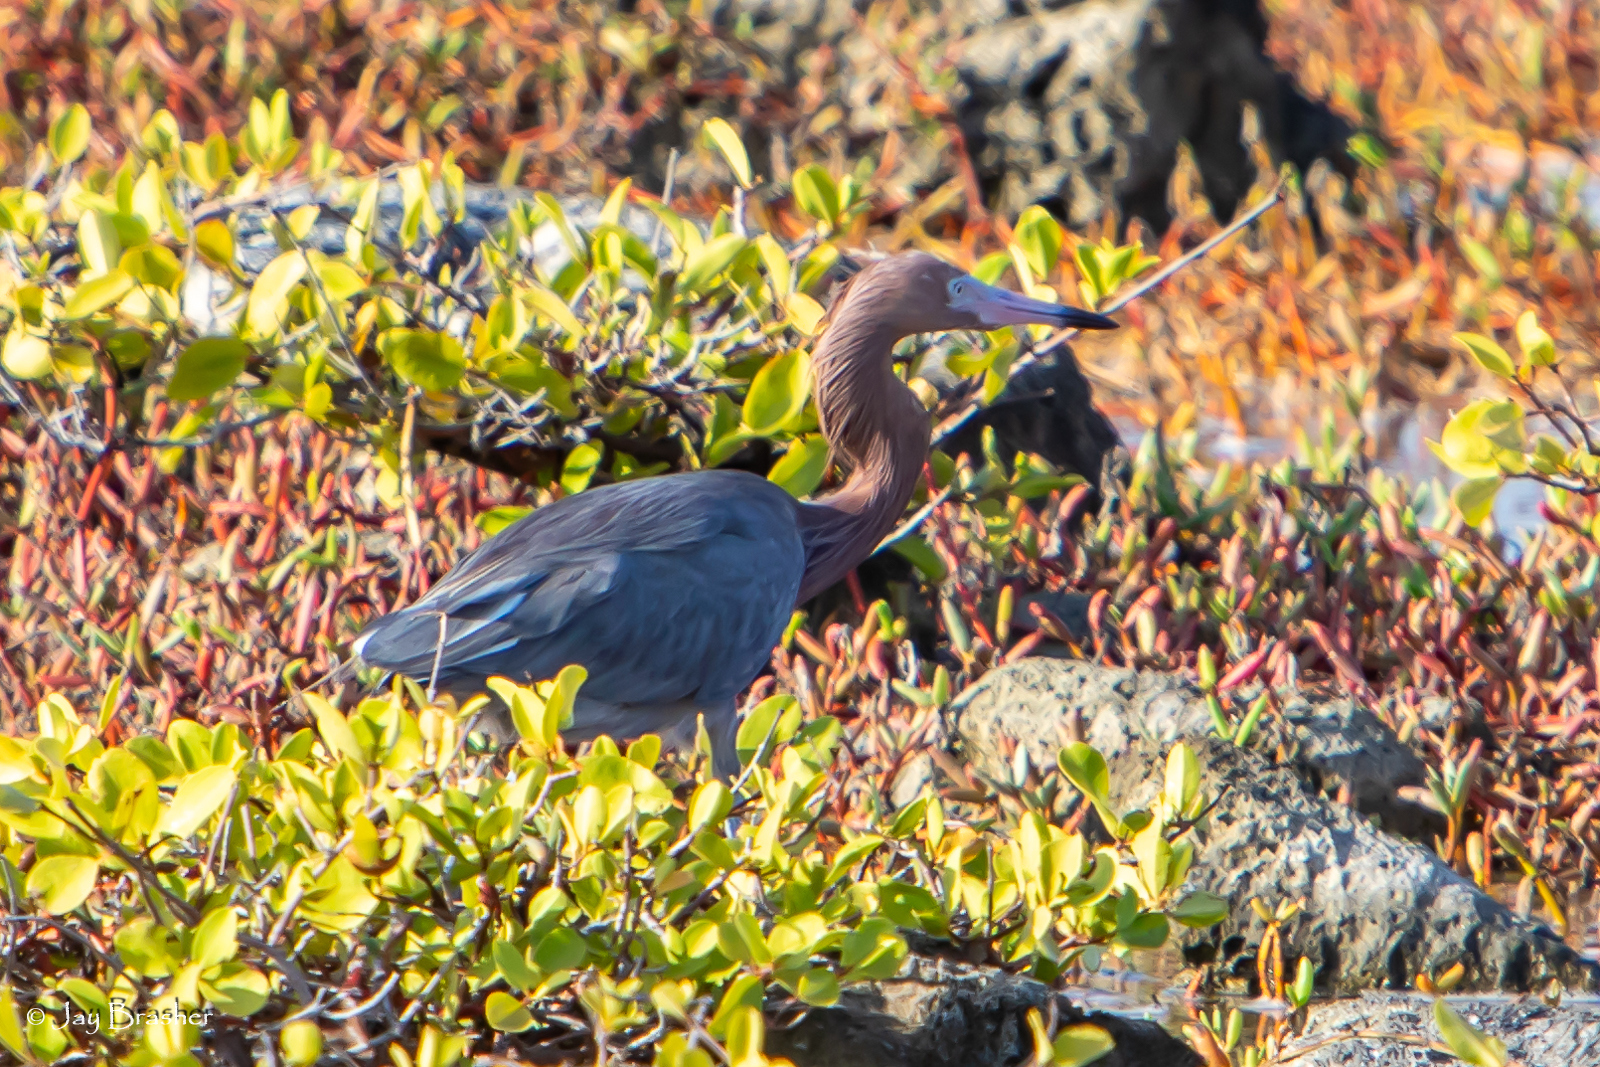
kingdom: Animalia
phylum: Chordata
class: Aves
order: Pelecaniformes
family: Ardeidae
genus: Egretta
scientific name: Egretta rufescens
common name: Reddish egret
